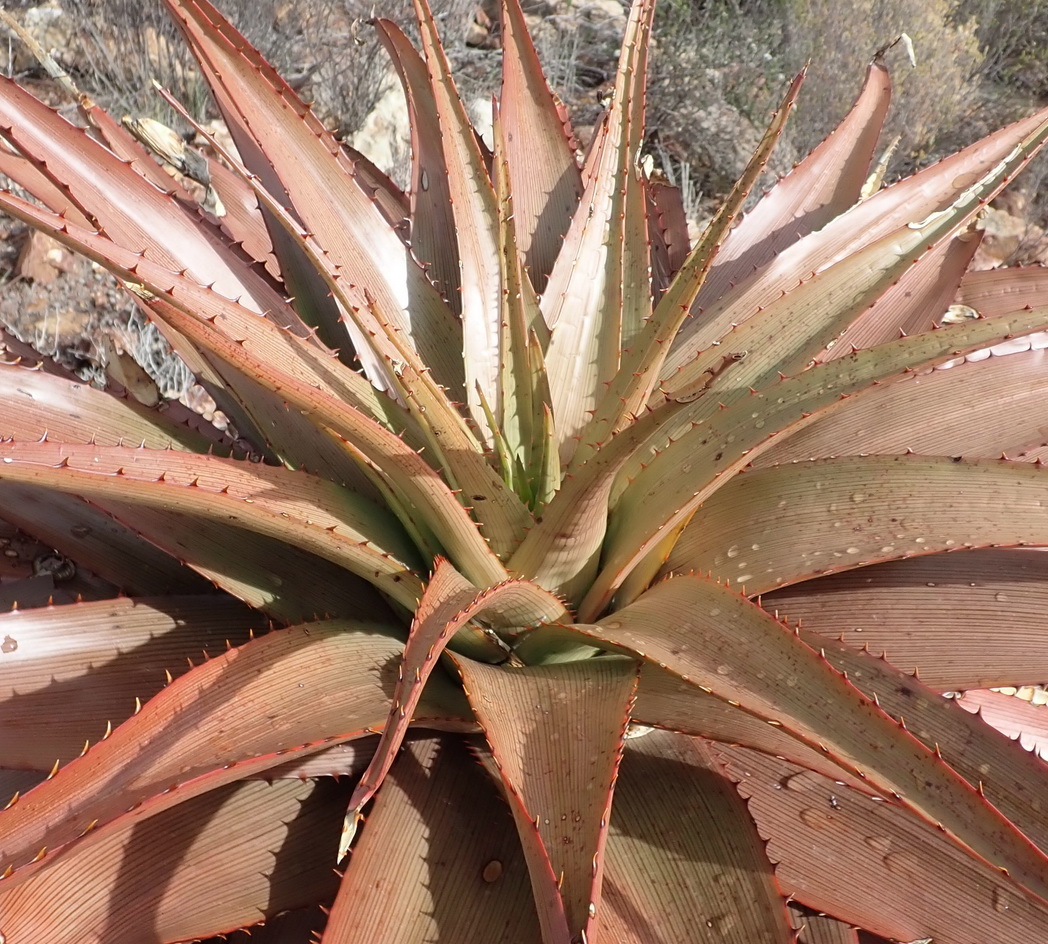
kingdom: Plantae
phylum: Tracheophyta
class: Liliopsida
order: Asparagales
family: Asphodelaceae
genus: Aloe
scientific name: Aloe lineata
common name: Lined red-spined aloe
